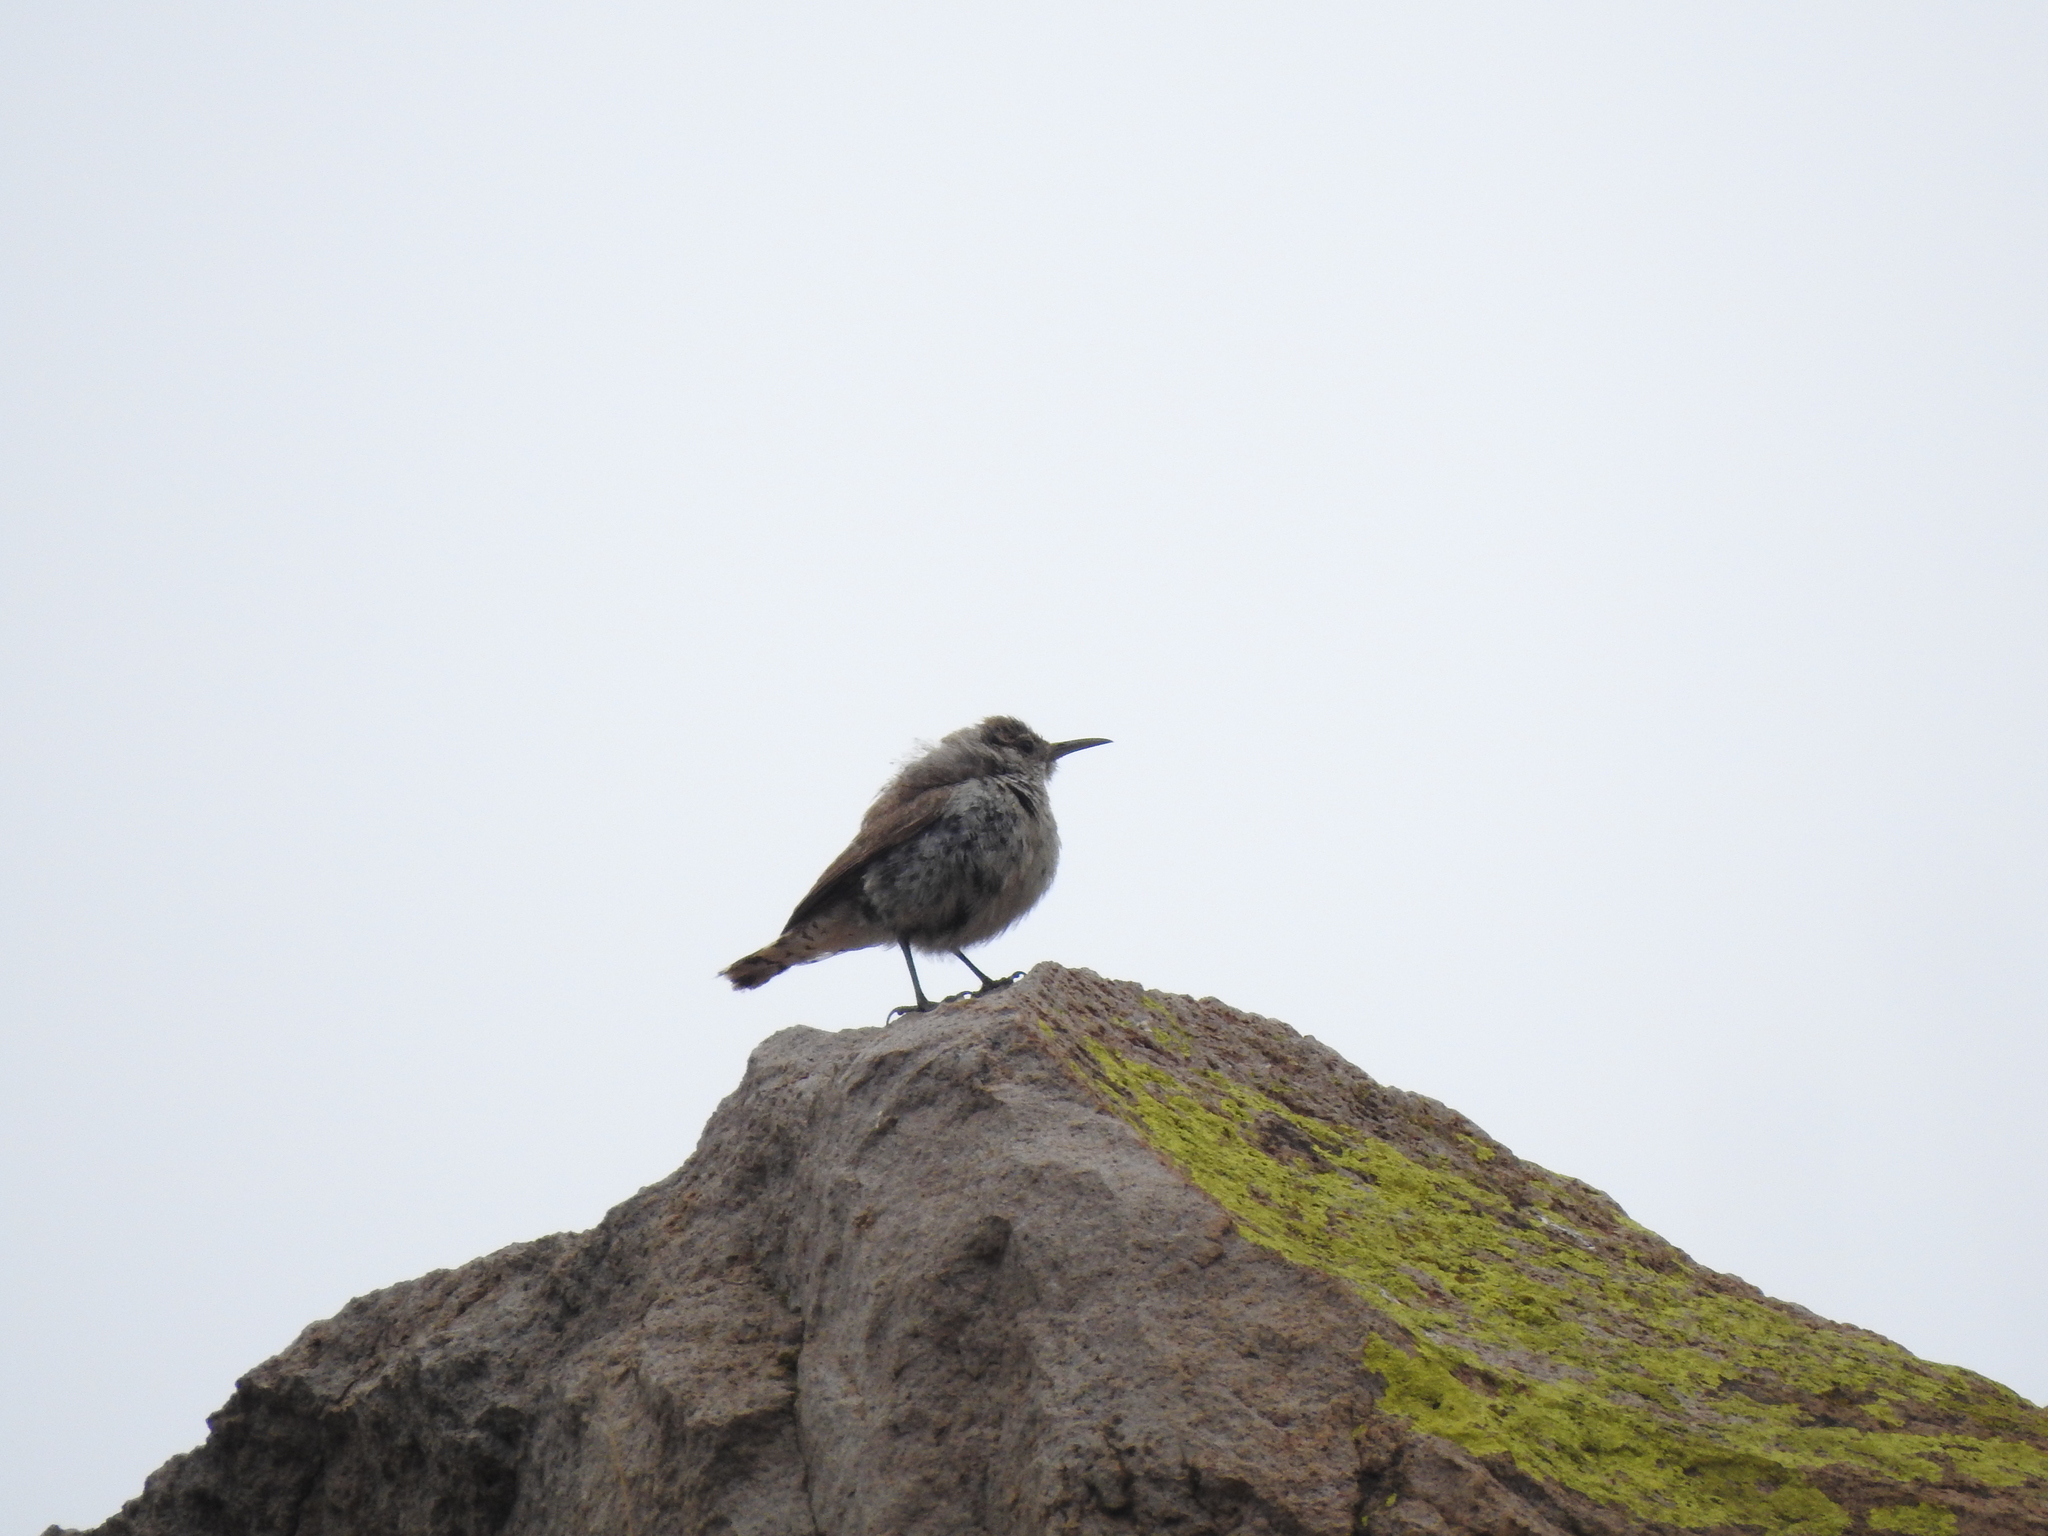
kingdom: Animalia
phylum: Chordata
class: Aves
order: Passeriformes
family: Troglodytidae
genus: Salpinctes
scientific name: Salpinctes obsoletus
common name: Rock wren
